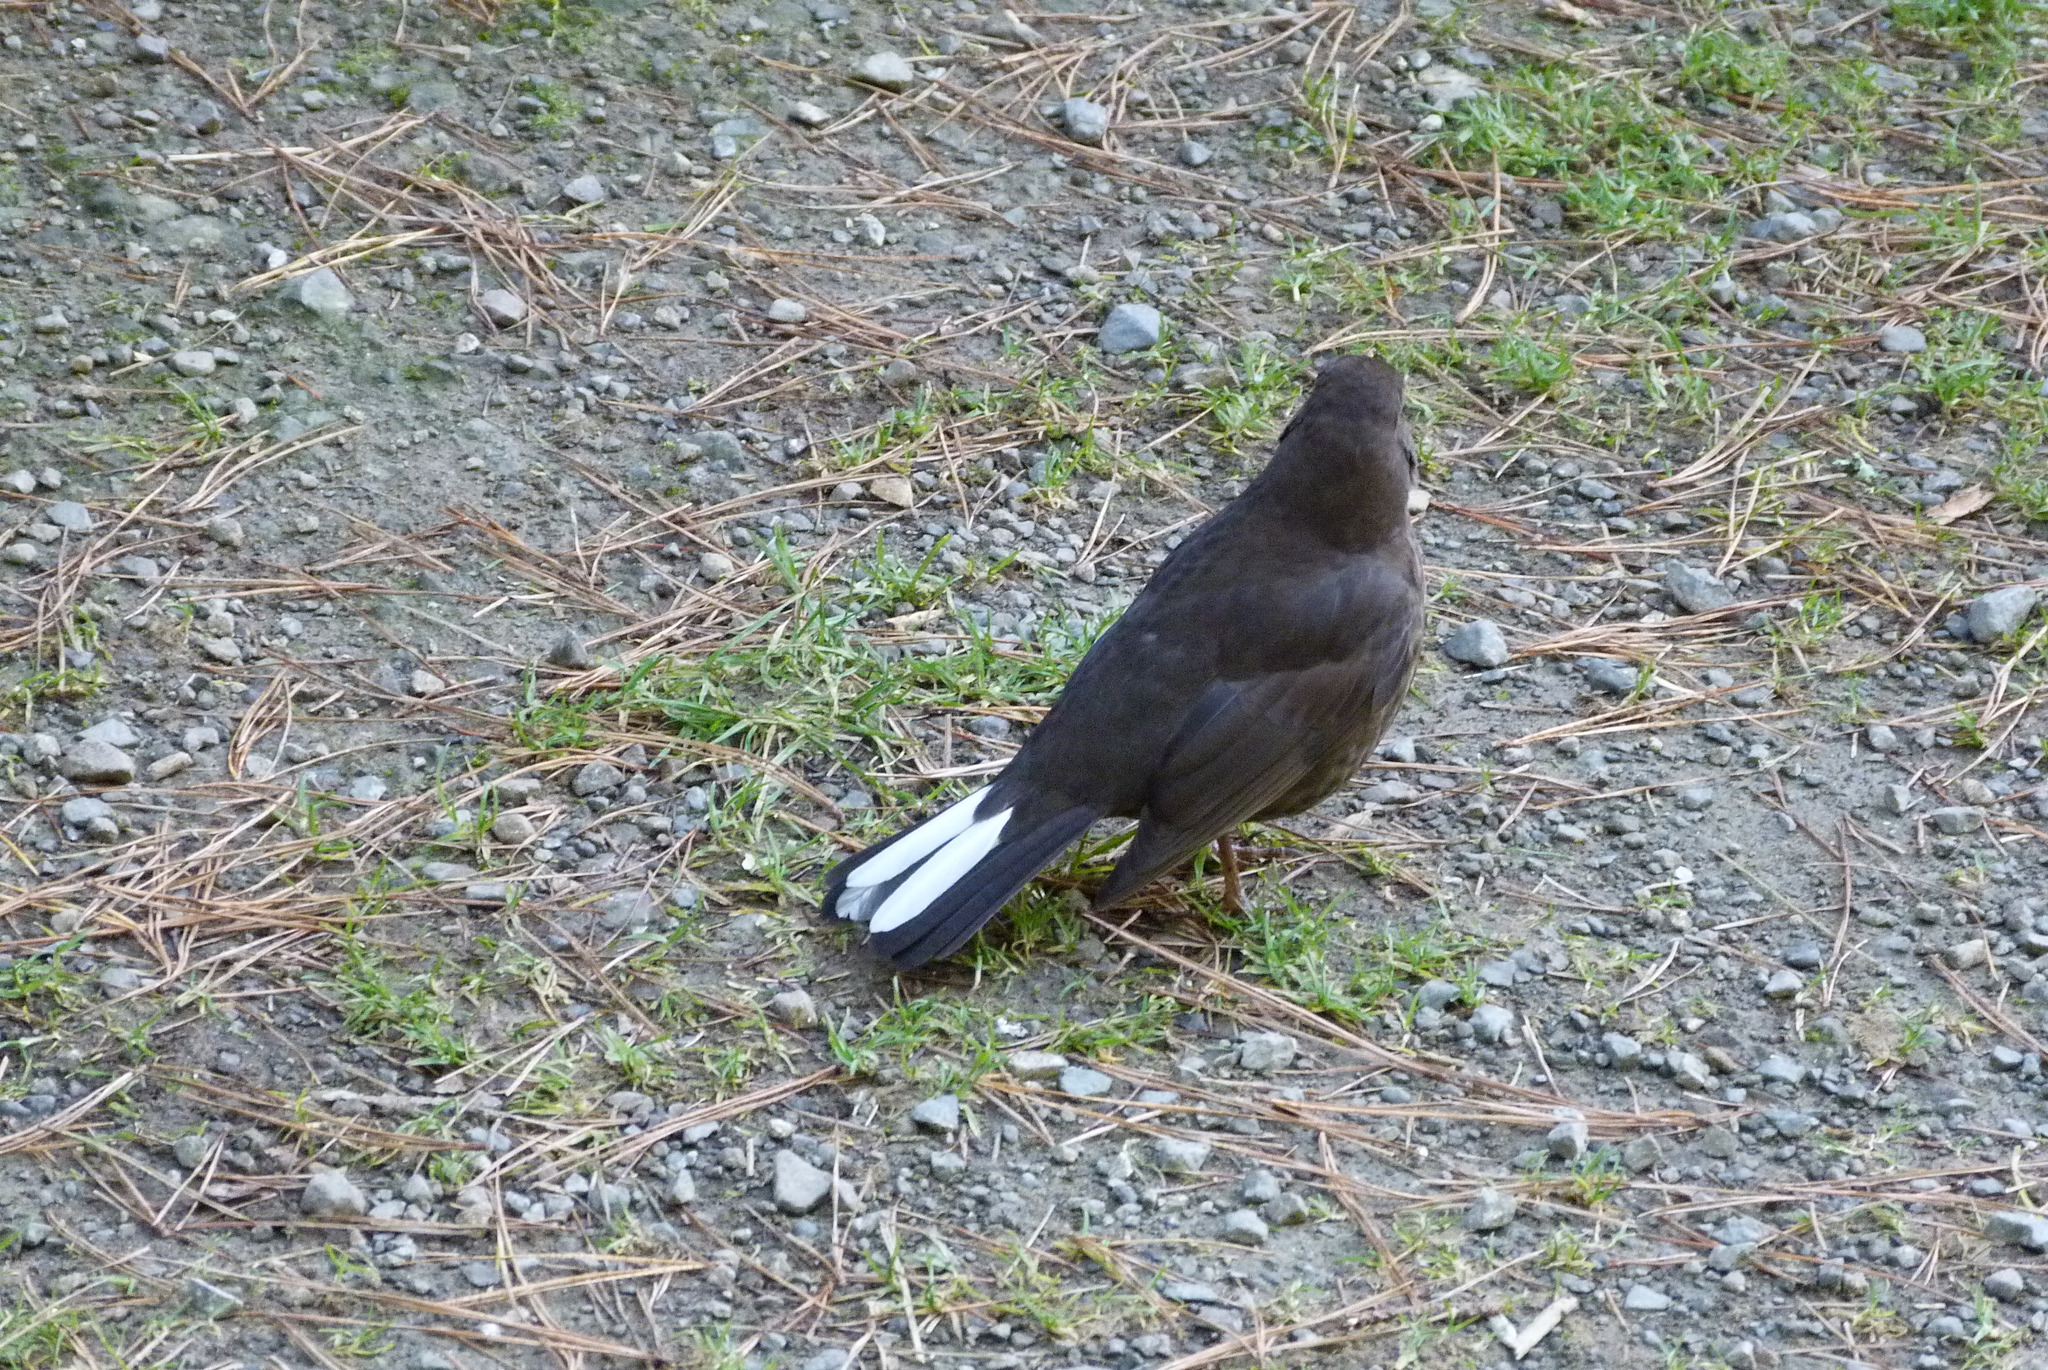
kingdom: Animalia
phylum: Chordata
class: Aves
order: Passeriformes
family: Turdidae
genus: Turdus
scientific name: Turdus merula
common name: Common blackbird
